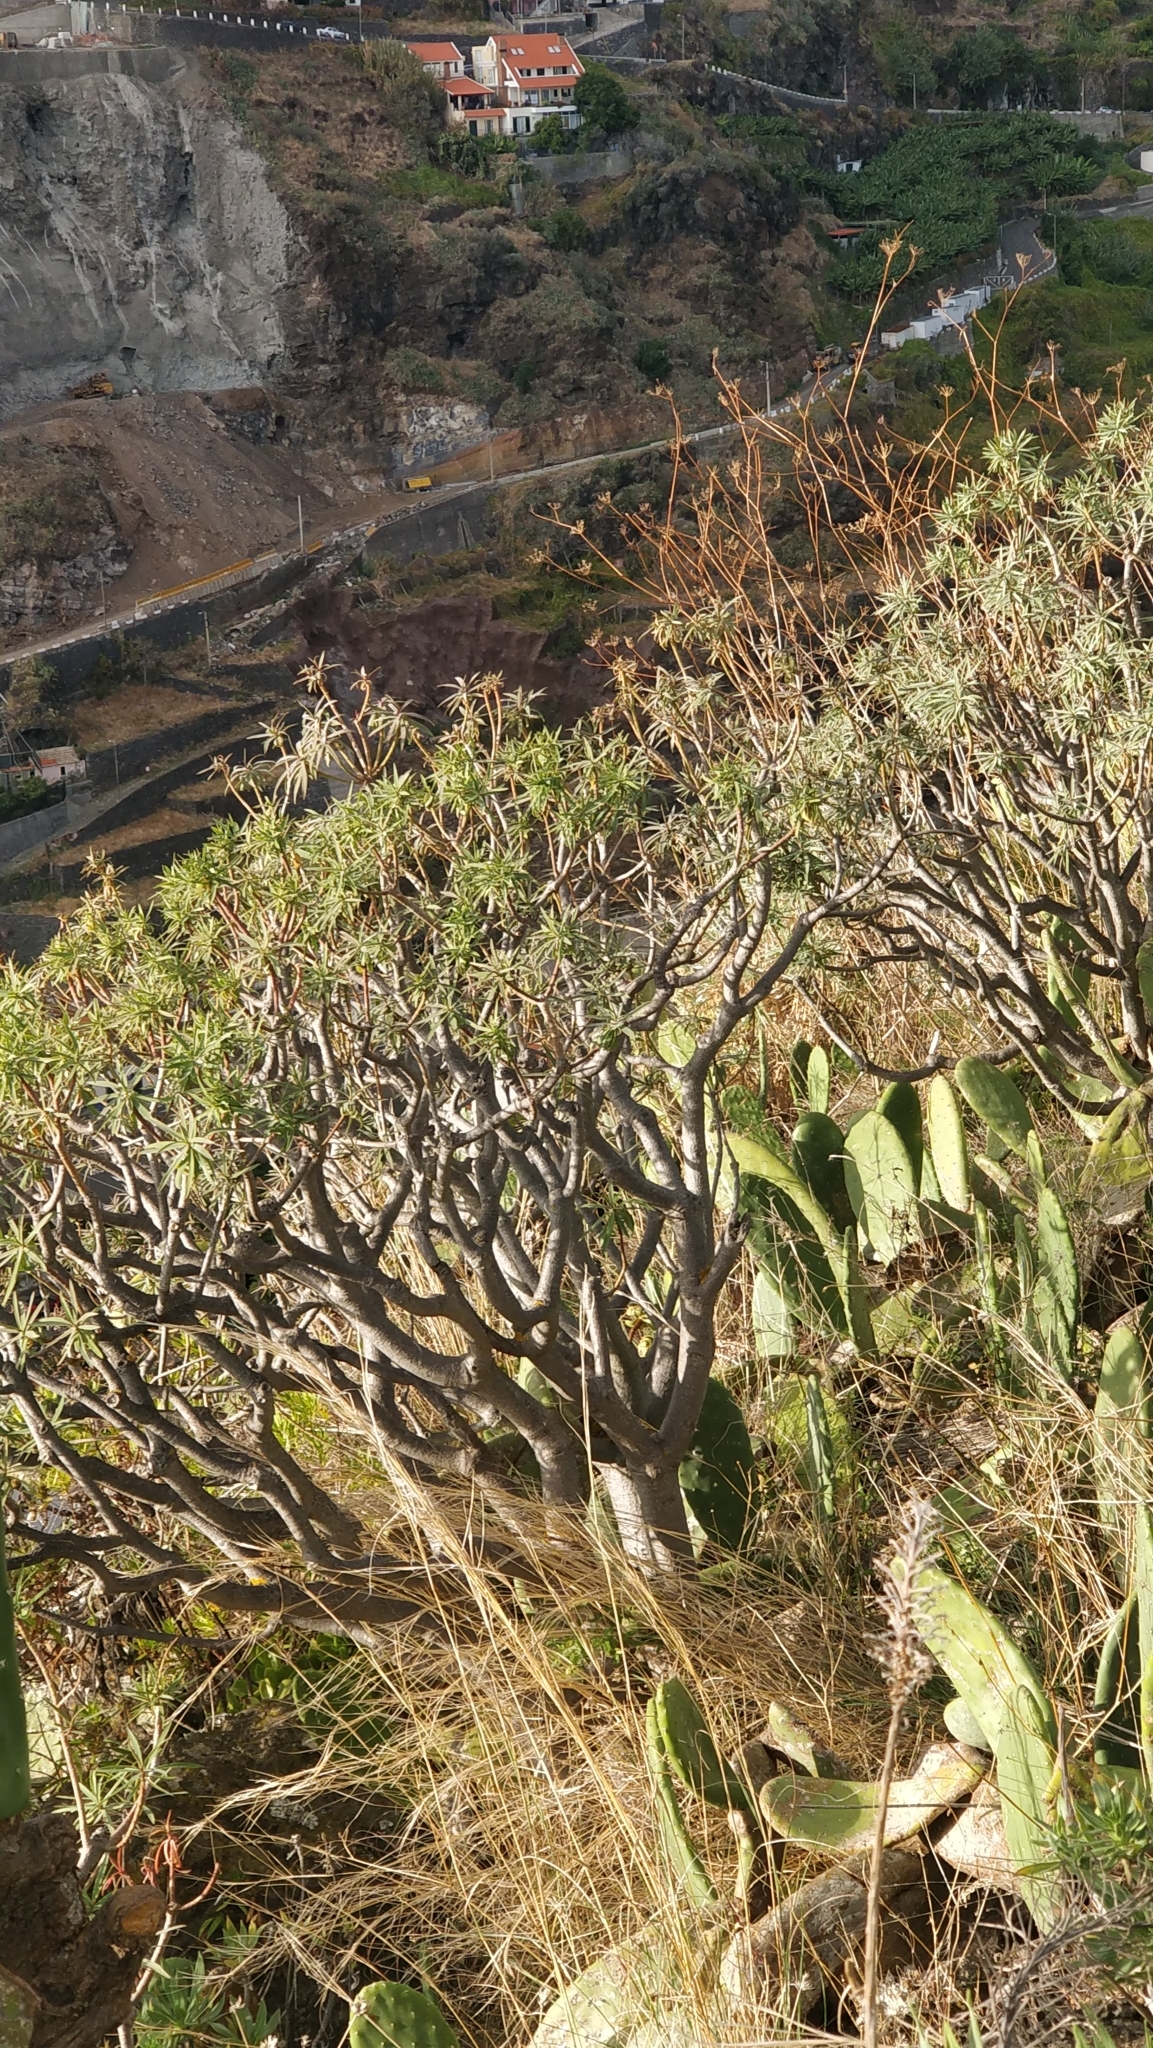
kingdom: Plantae
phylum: Tracheophyta
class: Magnoliopsida
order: Malpighiales
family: Euphorbiaceae
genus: Euphorbia
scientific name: Euphorbia piscatoria
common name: Fish-stunning spurge
